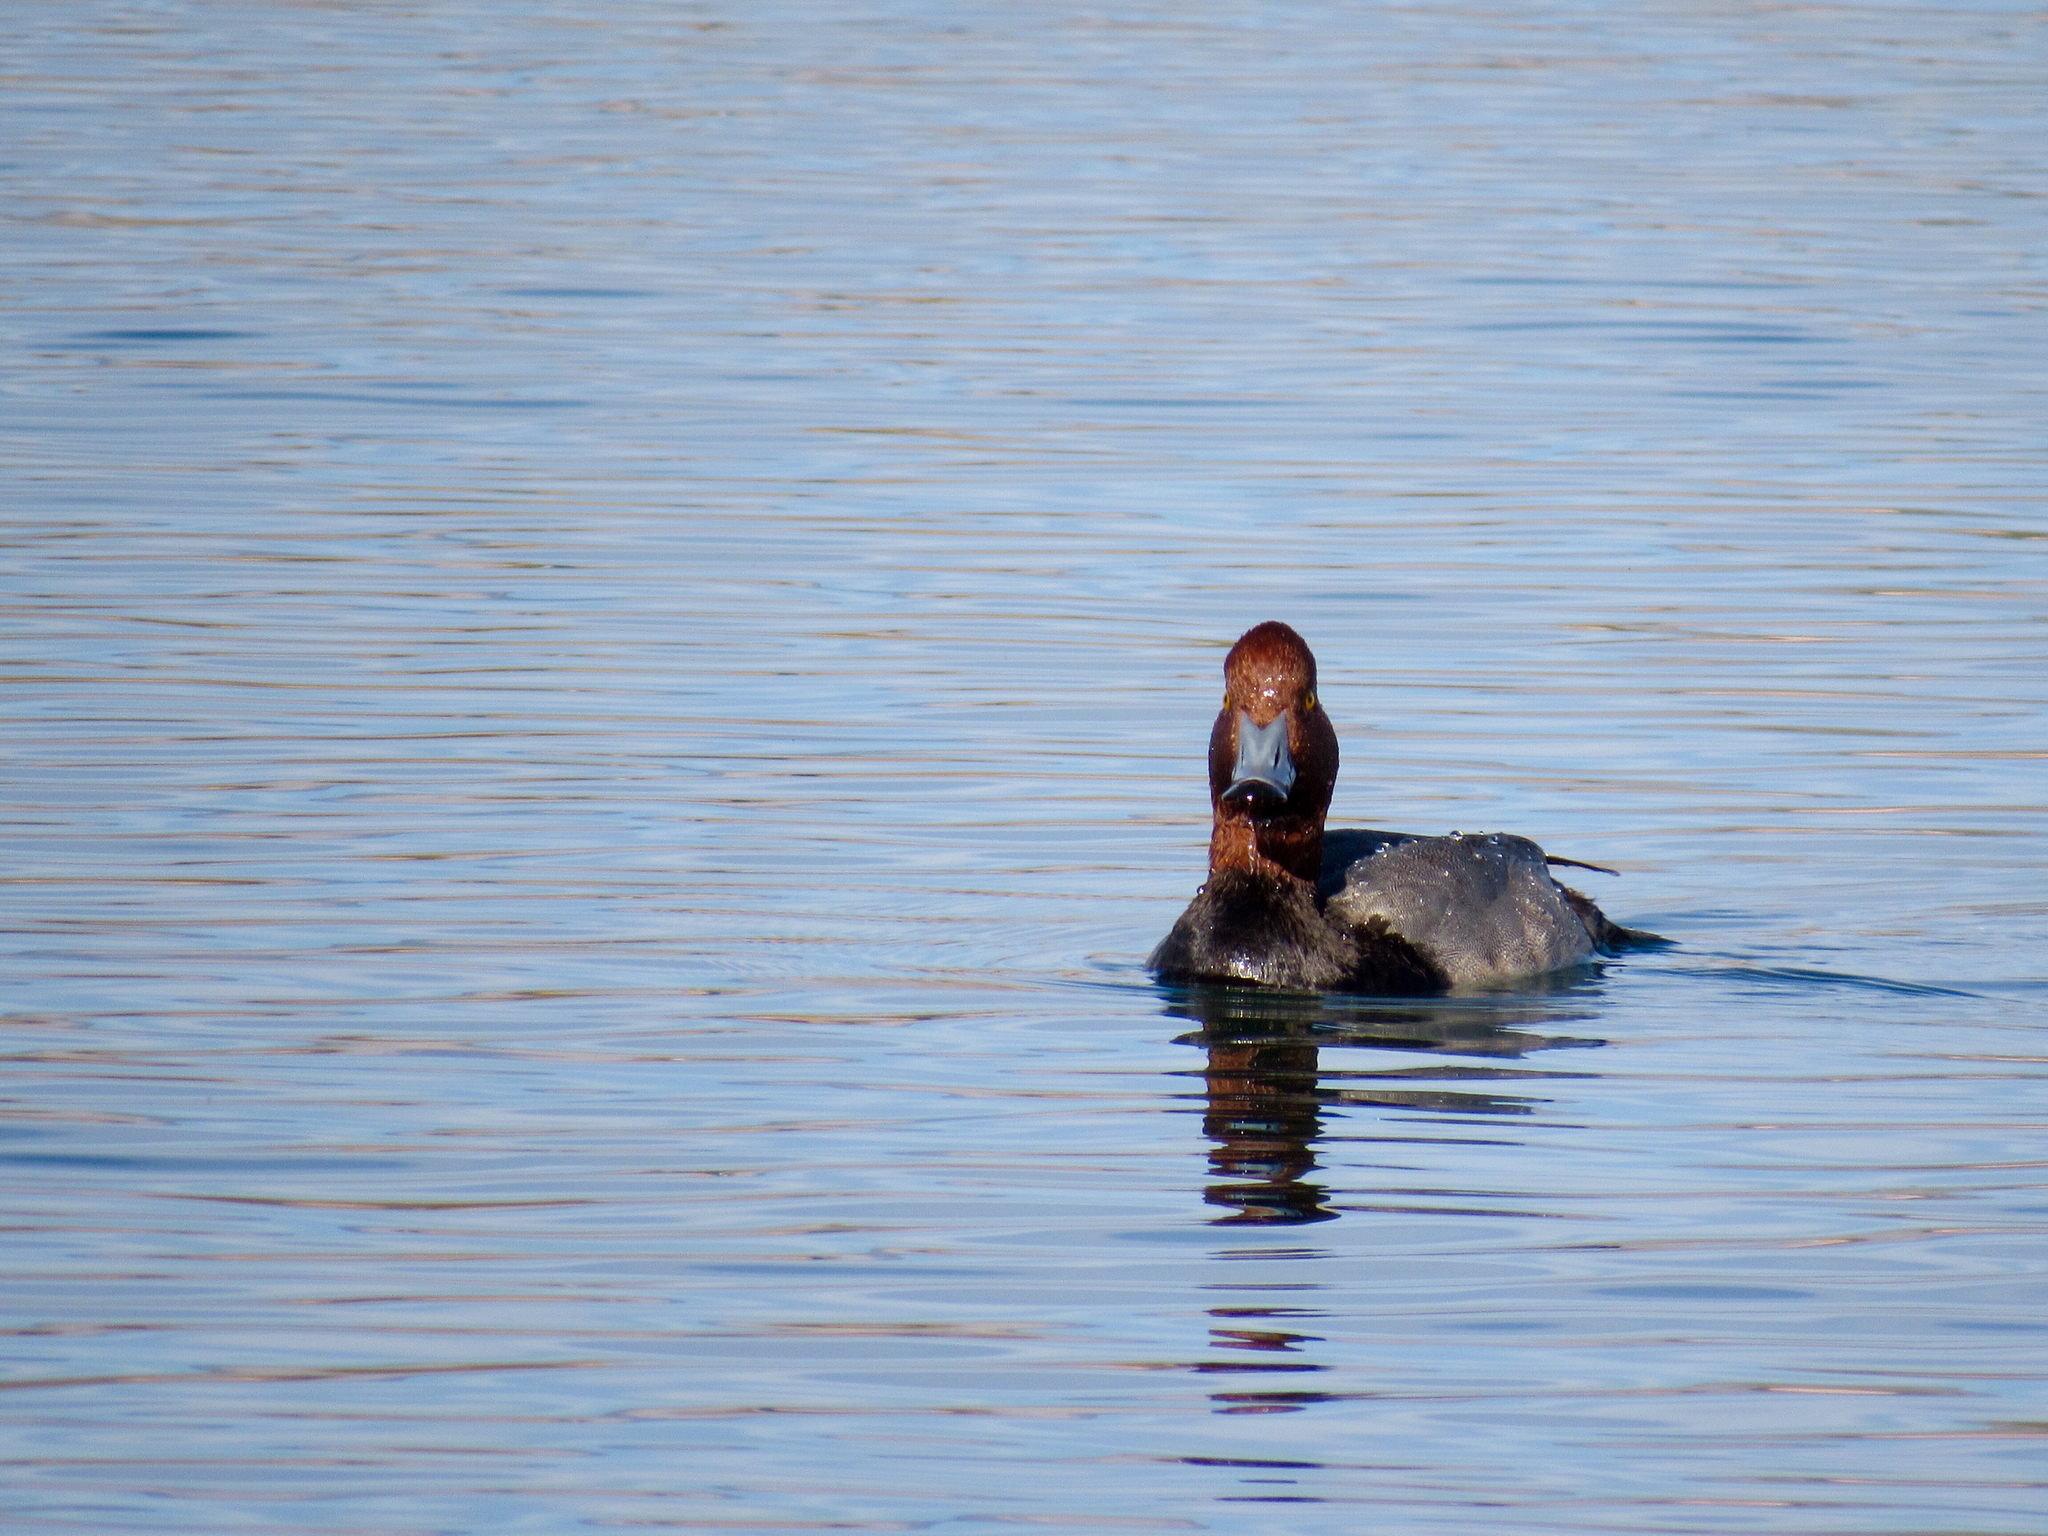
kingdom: Animalia
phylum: Chordata
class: Aves
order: Anseriformes
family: Anatidae
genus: Aythya
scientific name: Aythya americana
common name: Redhead
